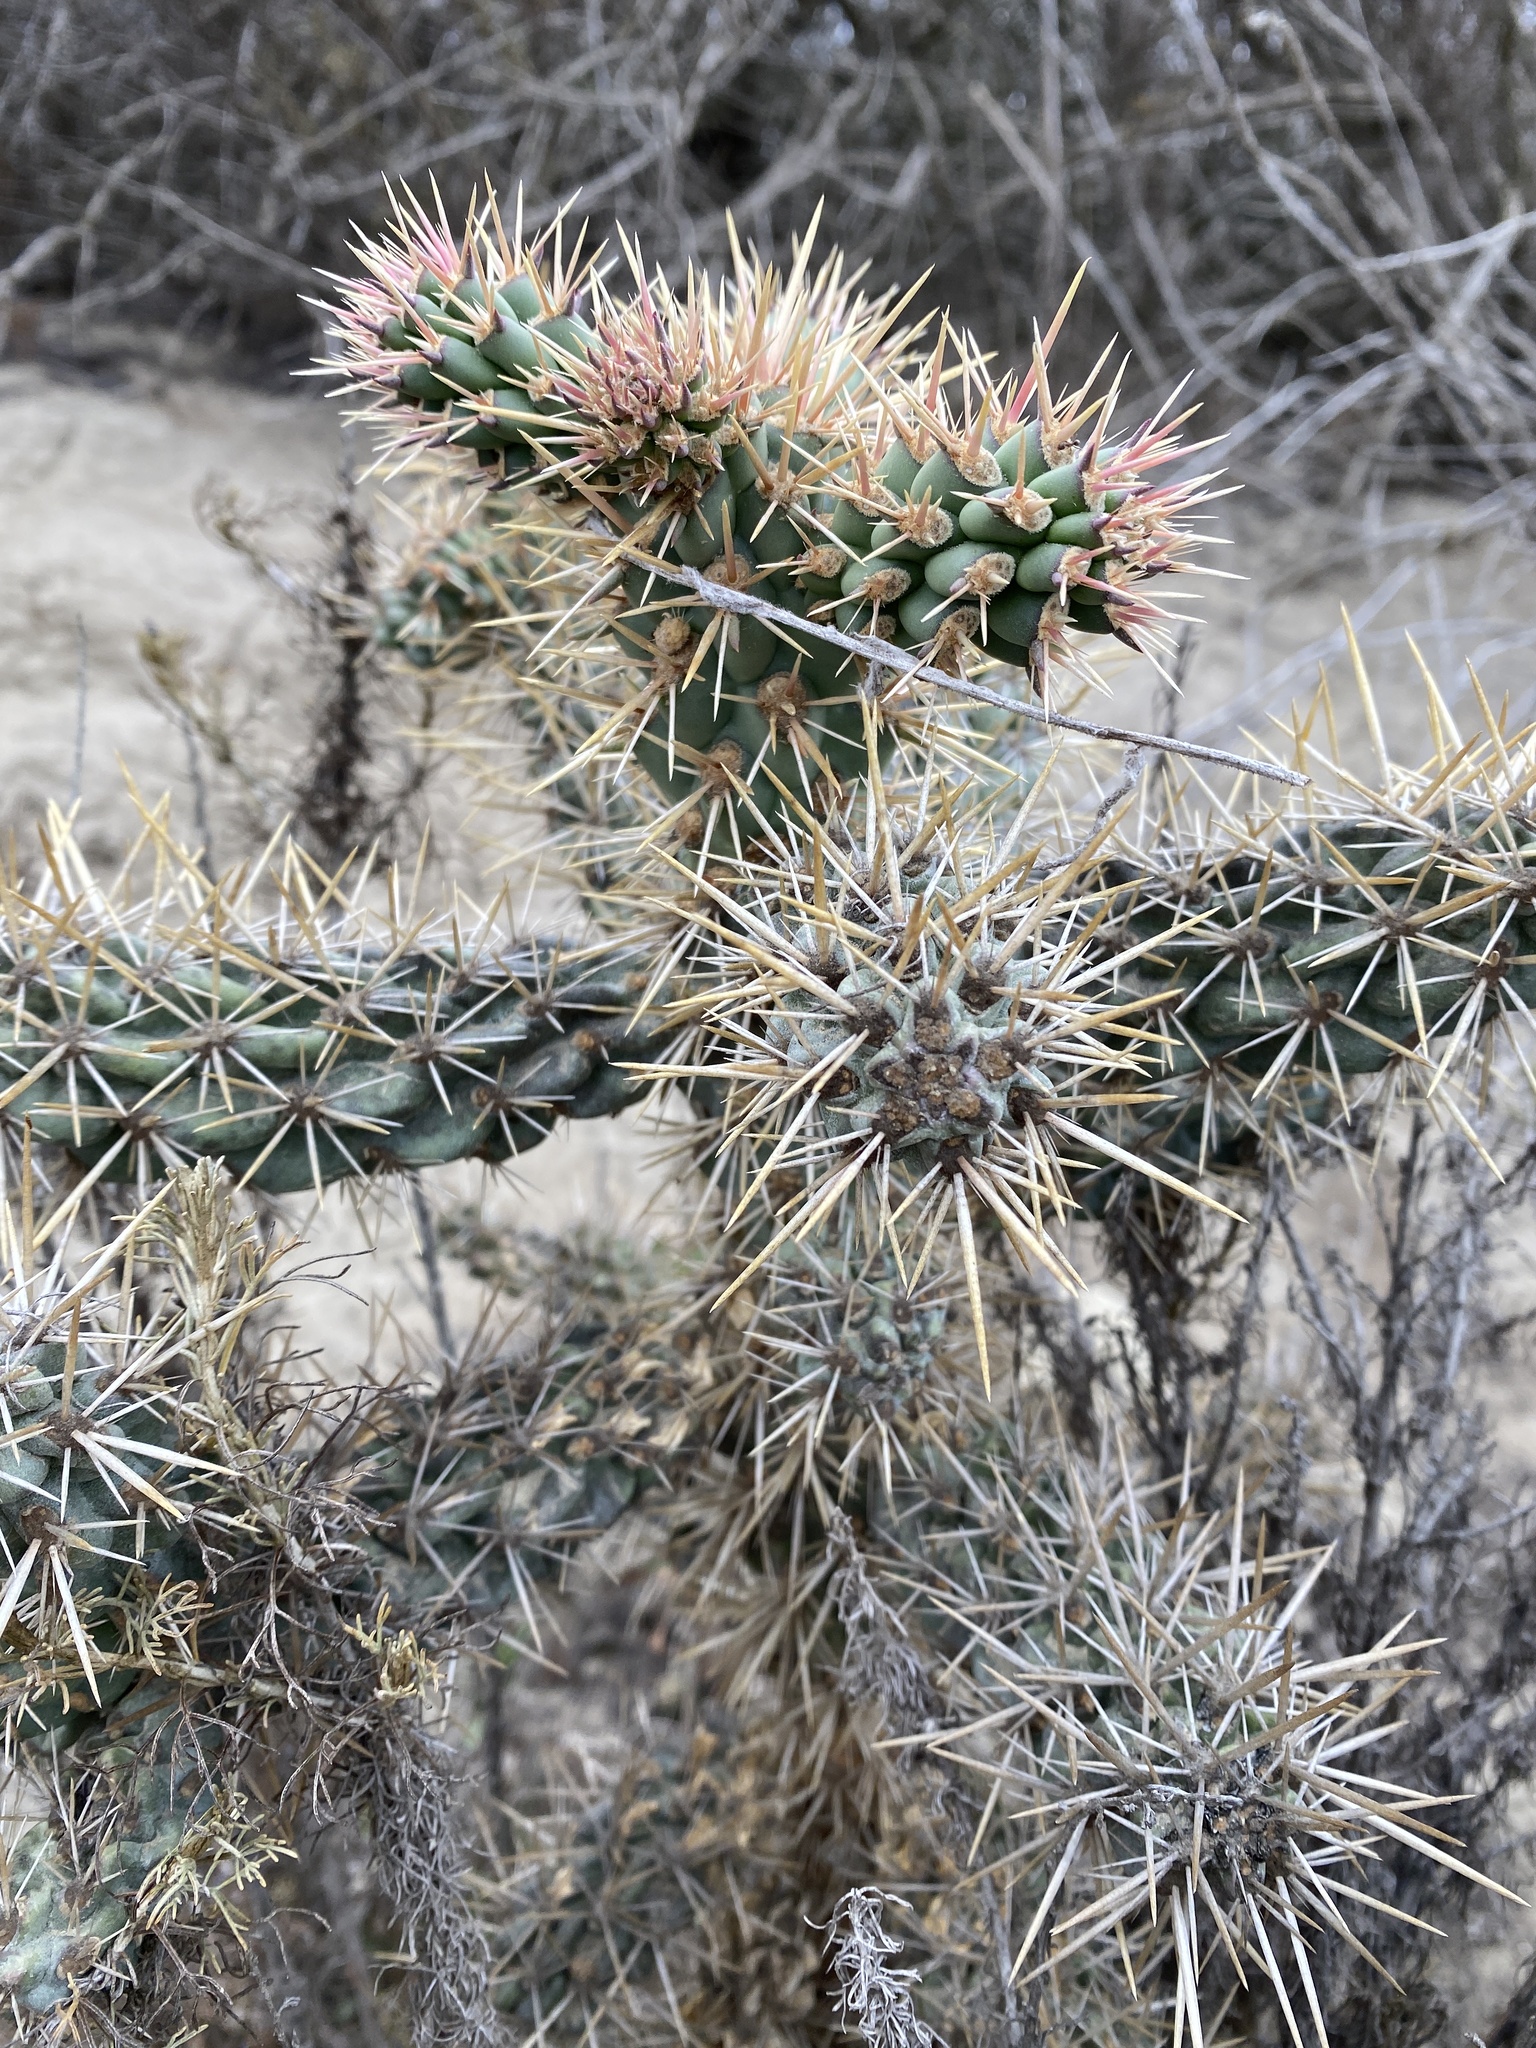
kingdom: Plantae
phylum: Tracheophyta
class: Magnoliopsida
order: Caryophyllales
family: Cactaceae
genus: Cylindropuntia
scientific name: Cylindropuntia prolifera
